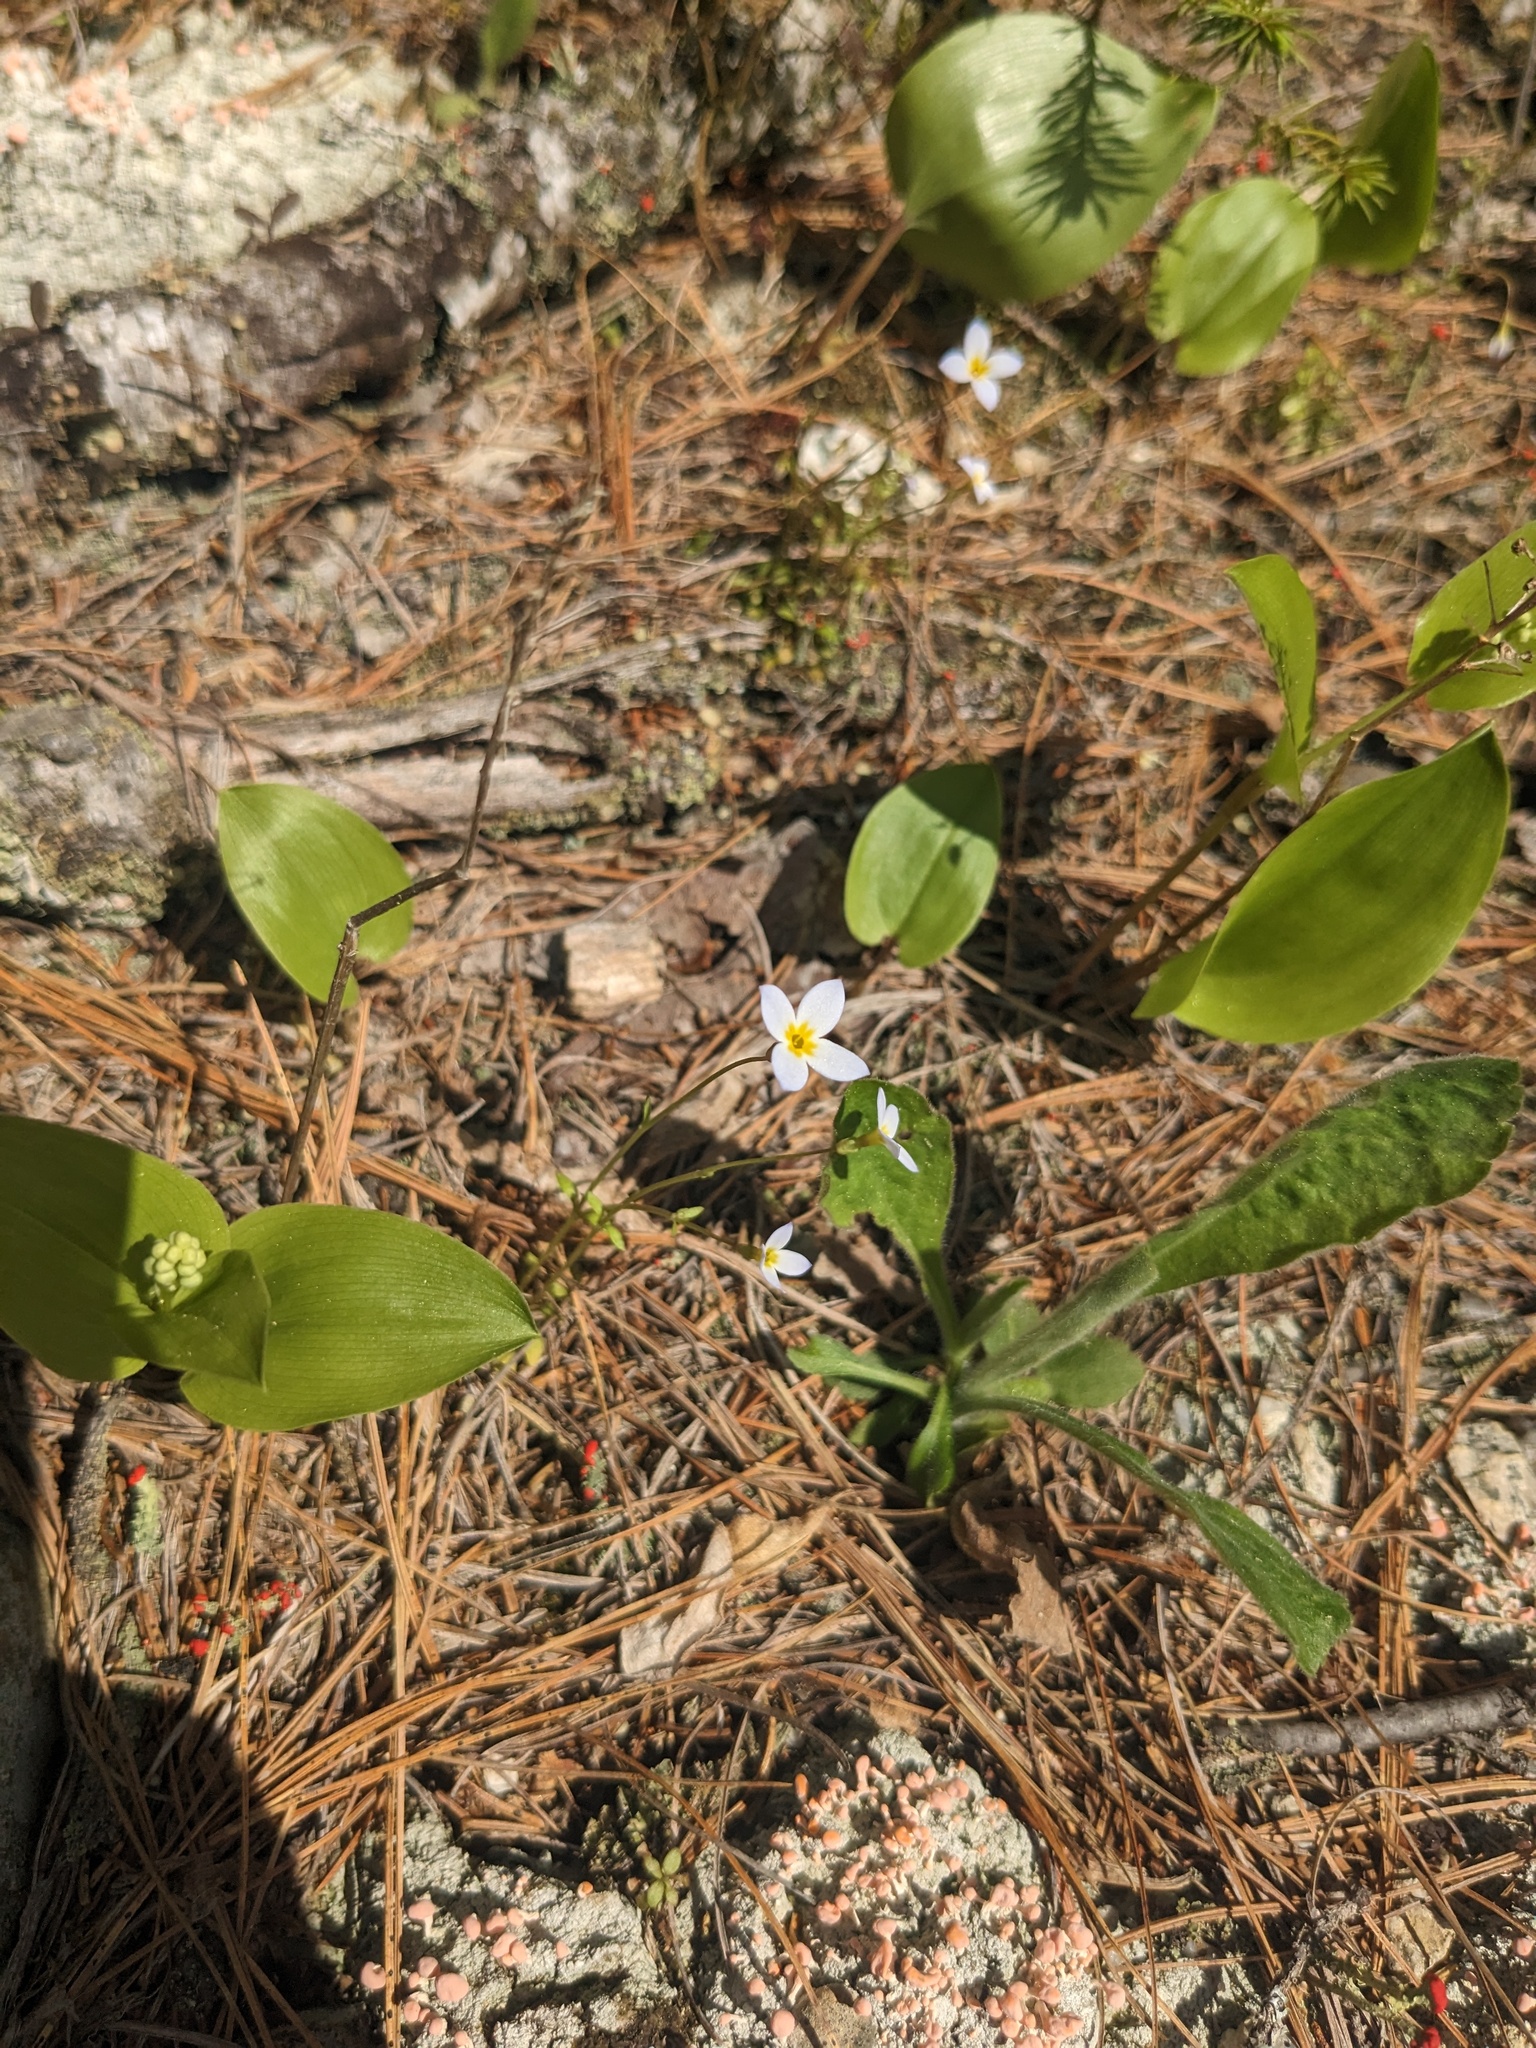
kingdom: Plantae
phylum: Tracheophyta
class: Magnoliopsida
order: Gentianales
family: Rubiaceae
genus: Houstonia
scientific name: Houstonia caerulea
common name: Bluets
